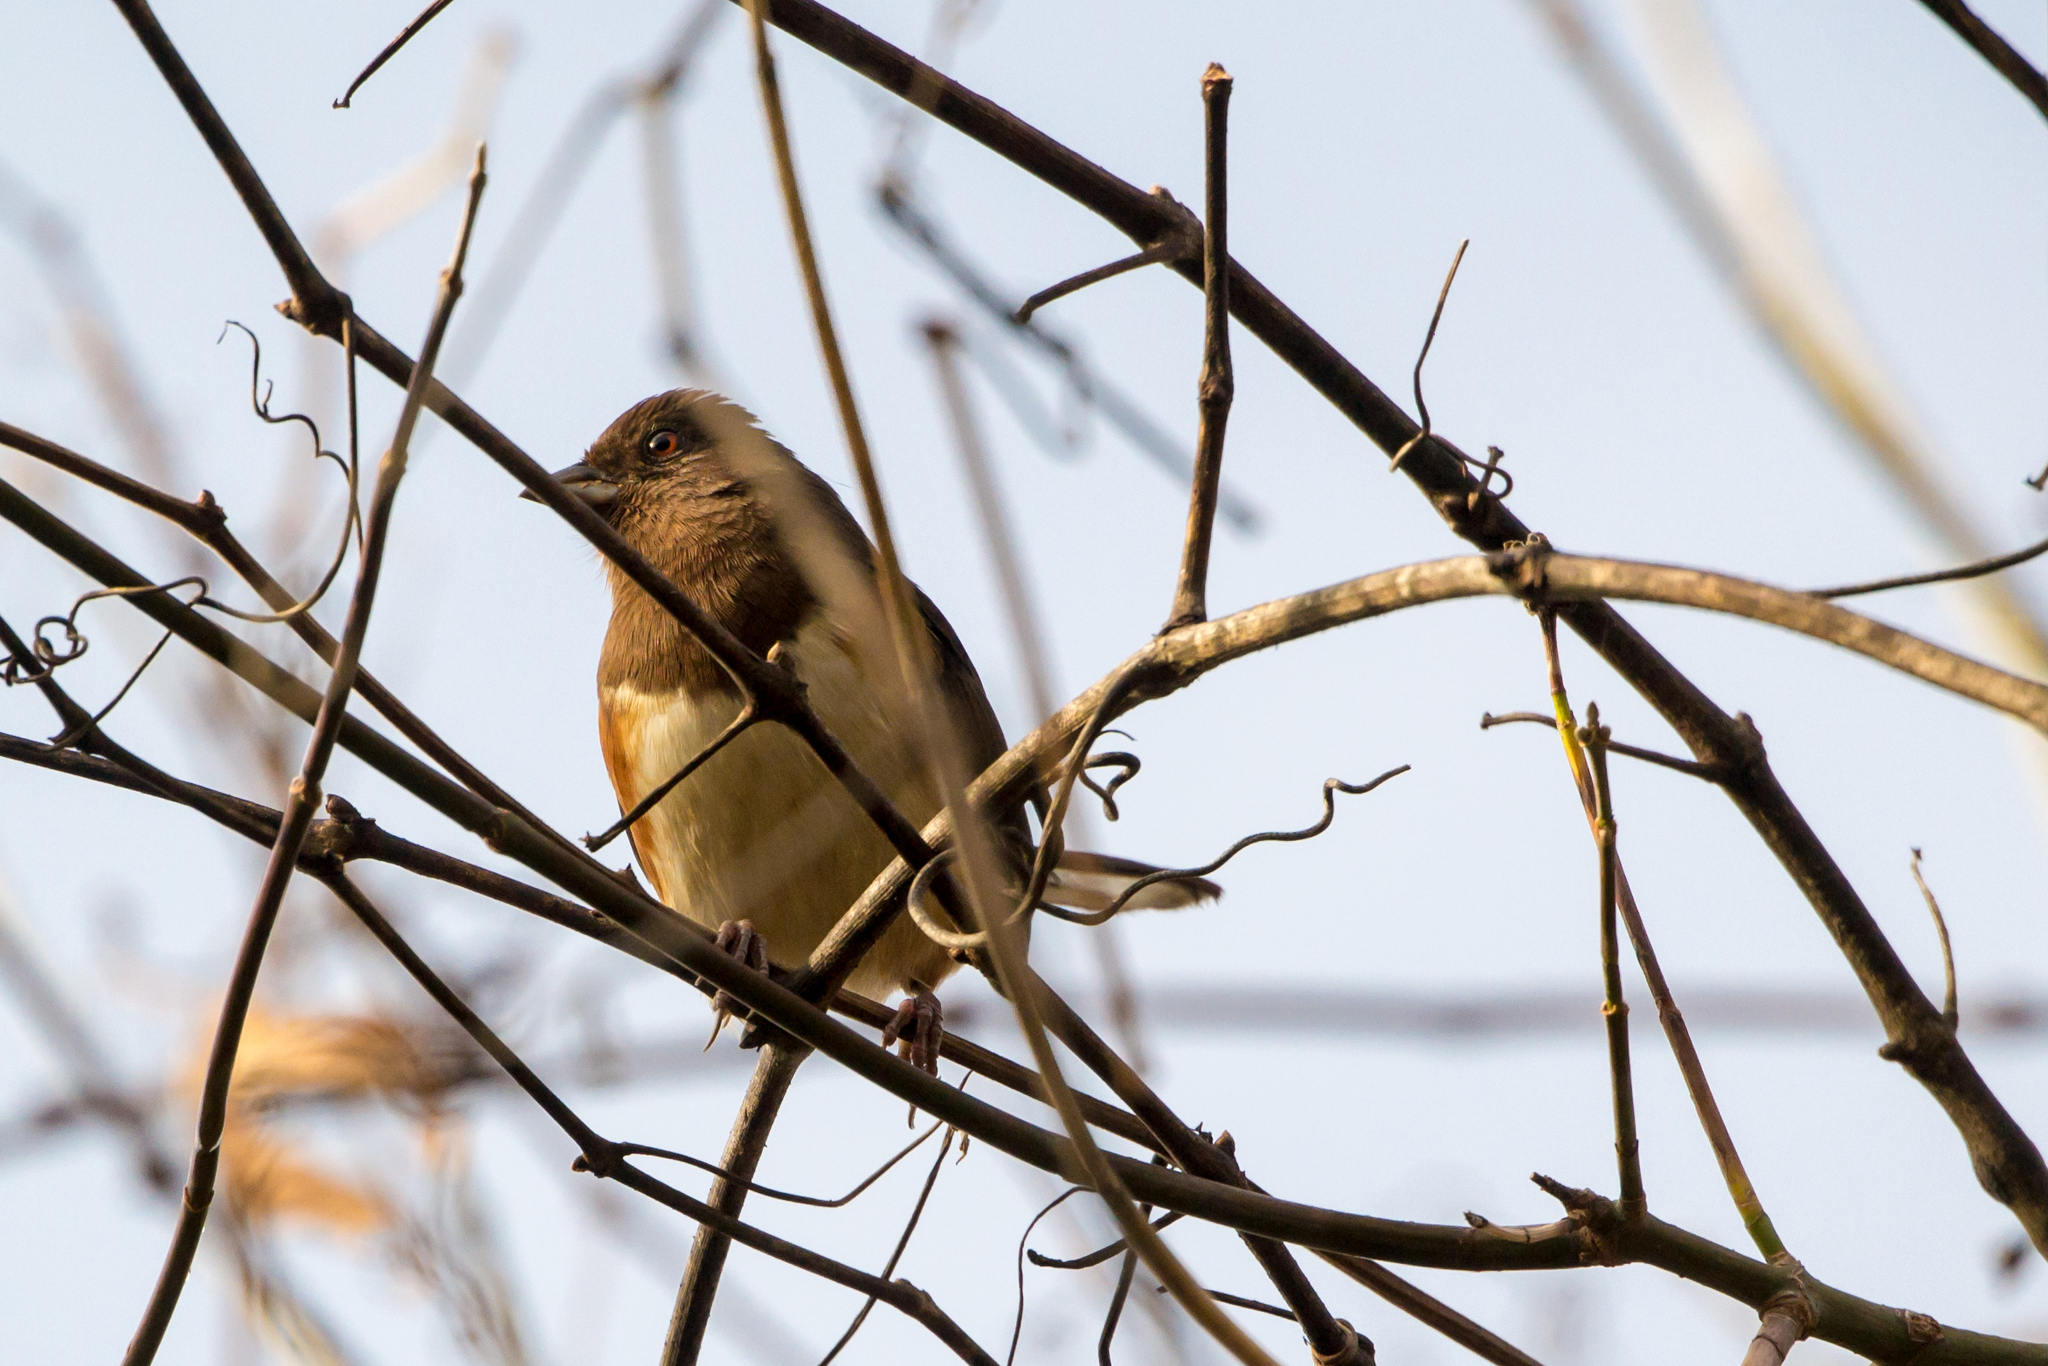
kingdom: Animalia
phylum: Chordata
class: Aves
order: Passeriformes
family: Passerellidae
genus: Pipilo
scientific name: Pipilo erythrophthalmus
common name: Eastern towhee
